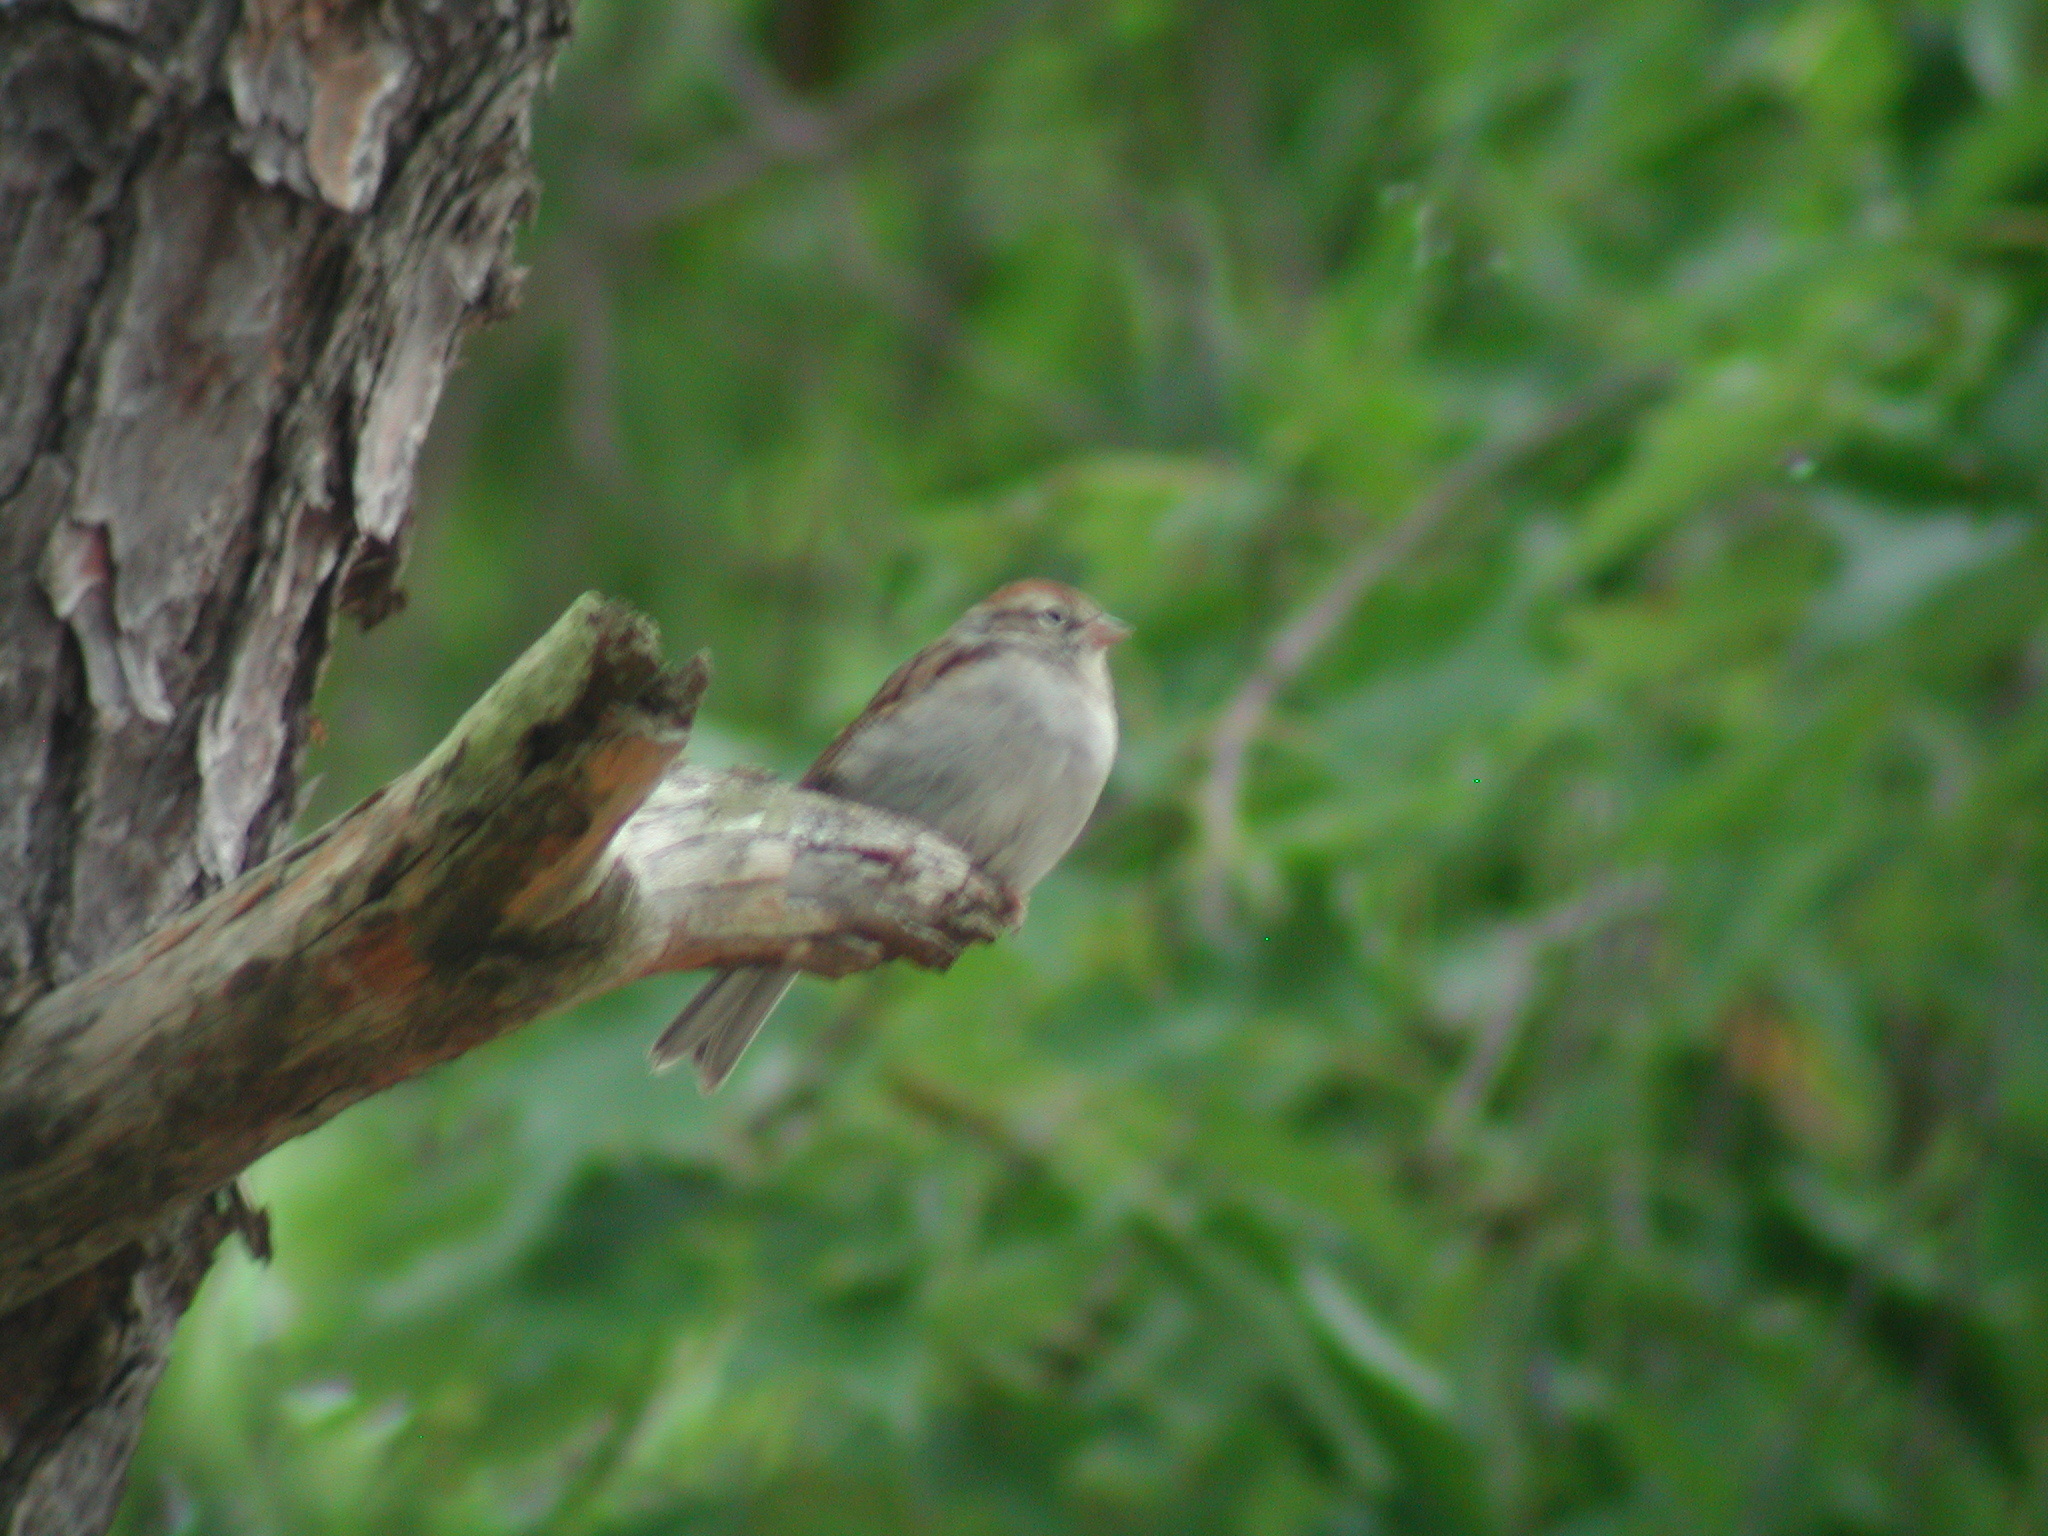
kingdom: Animalia
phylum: Chordata
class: Aves
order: Passeriformes
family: Passerellidae
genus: Spizella
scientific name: Spizella passerina
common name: Chipping sparrow
